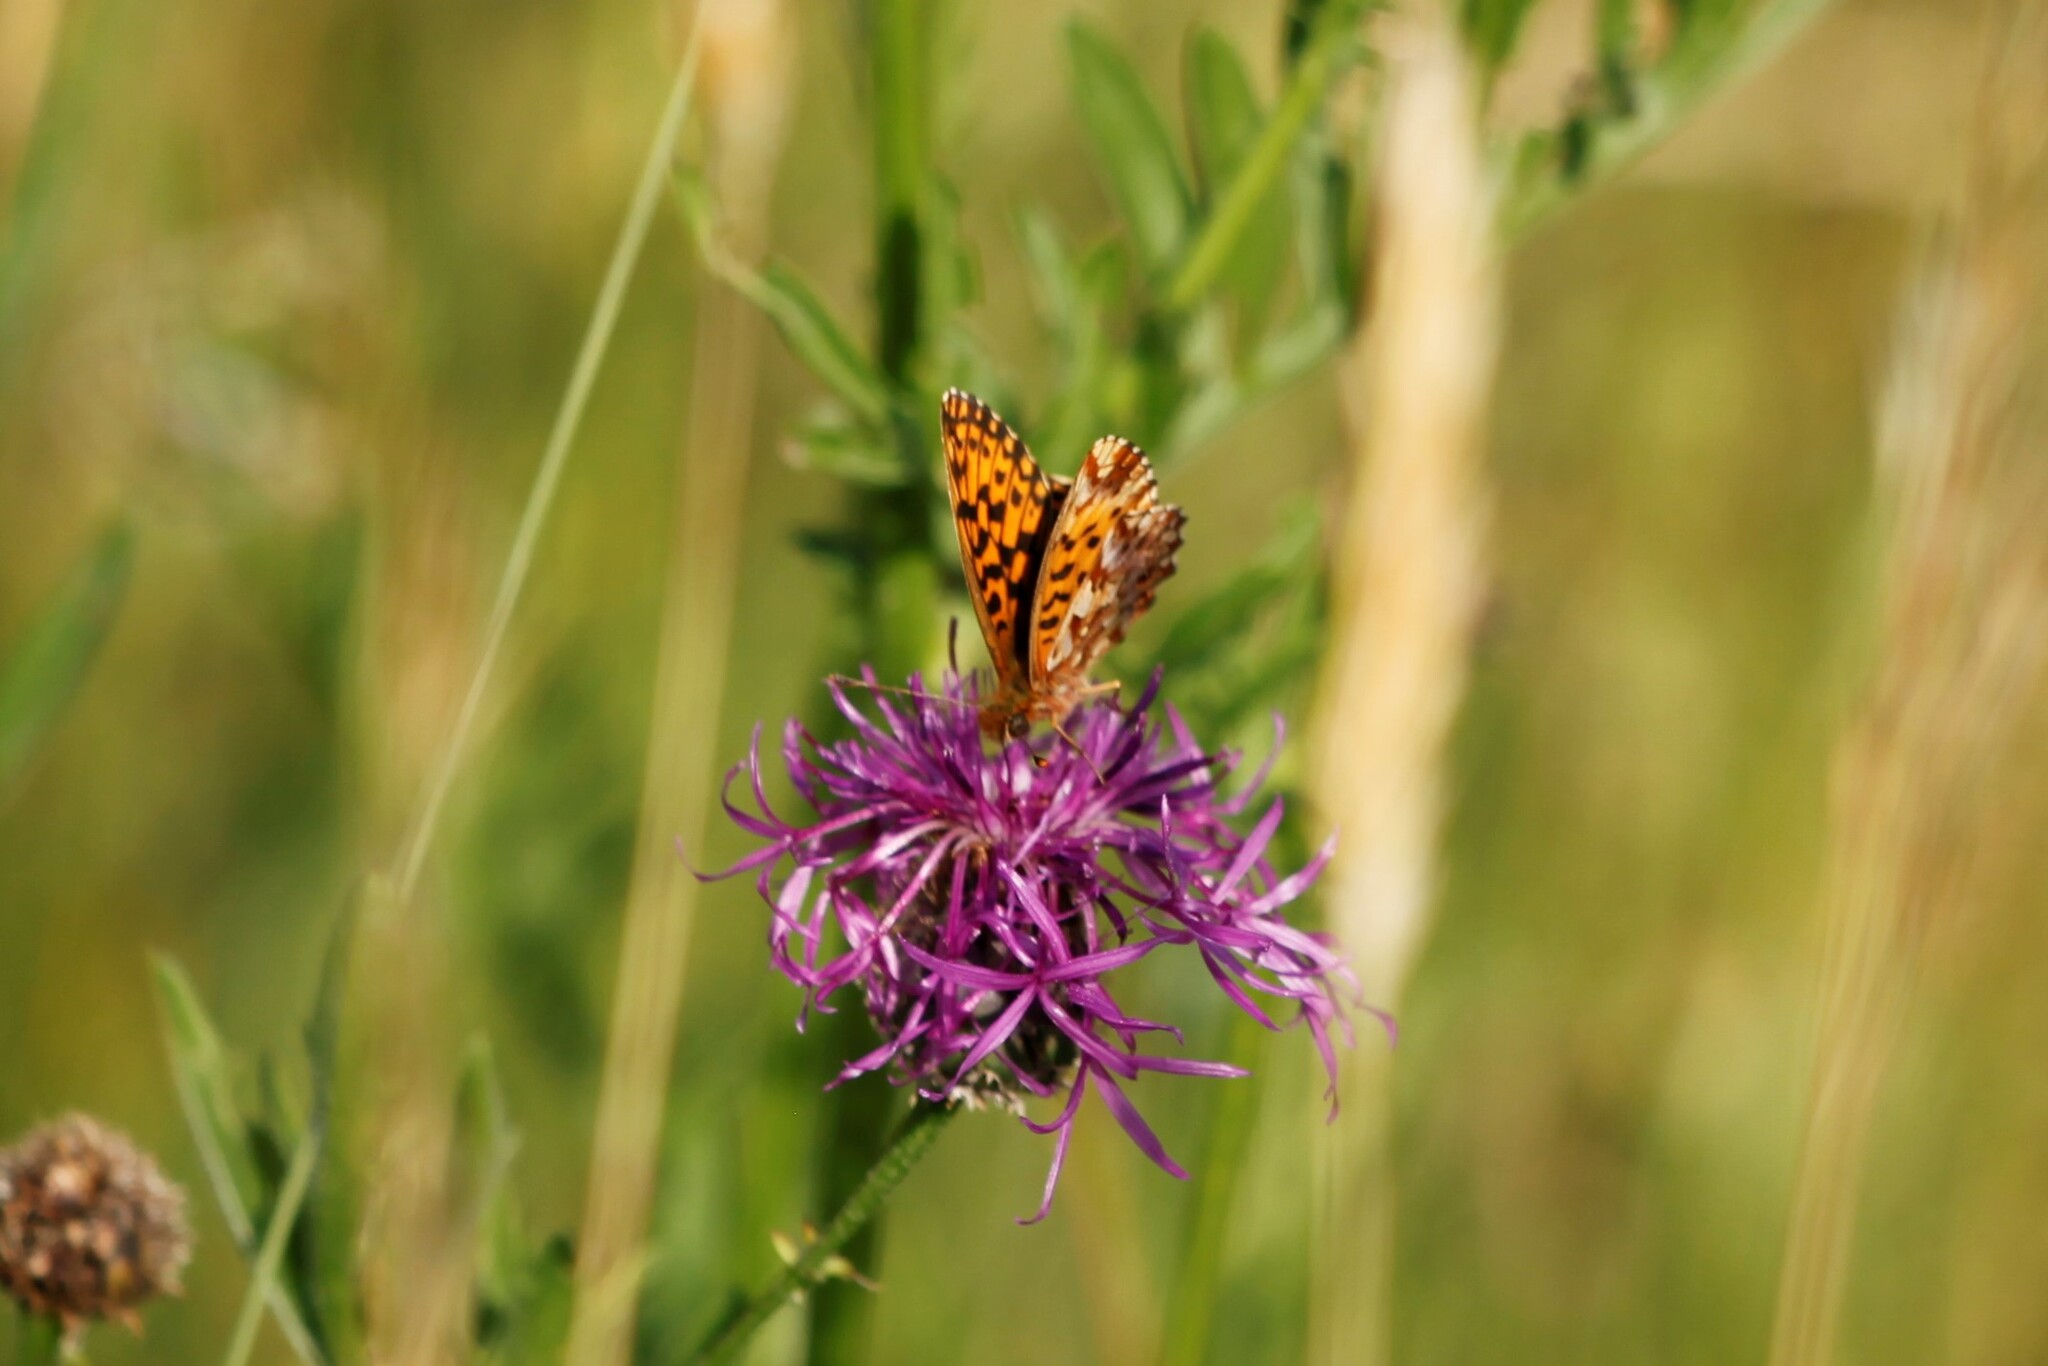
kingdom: Animalia
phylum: Arthropoda
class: Insecta
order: Lepidoptera
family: Nymphalidae
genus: Boloria
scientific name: Boloria dia
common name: Weaver's fritillary
